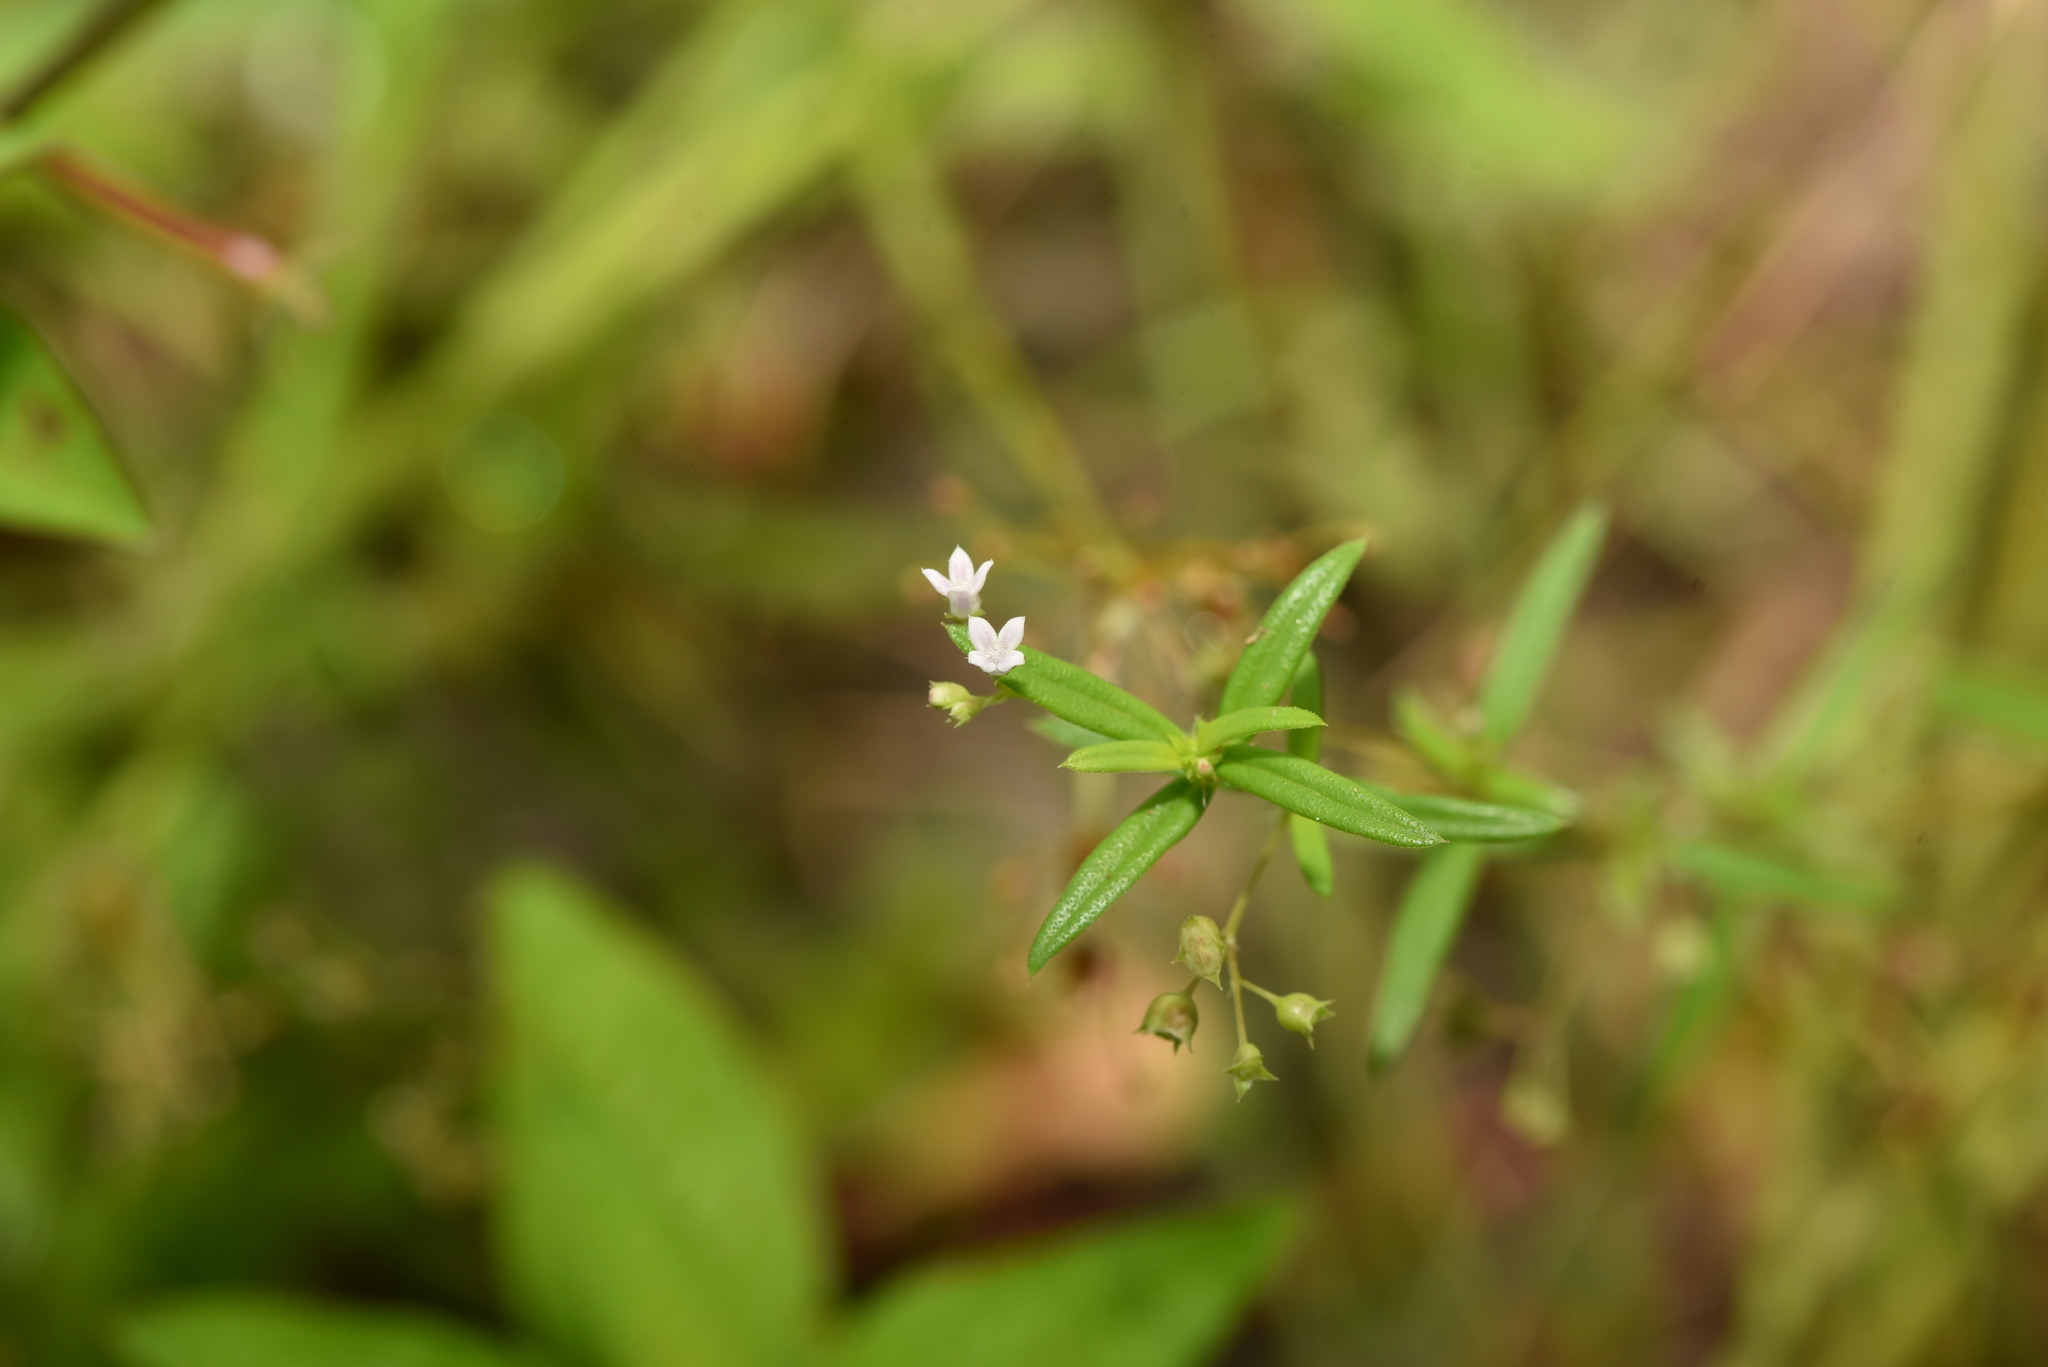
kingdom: Plantae
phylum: Tracheophyta
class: Magnoliopsida
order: Gentianales
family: Rubiaceae
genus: Oldenlandia
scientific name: Oldenlandia corymbosa
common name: Flat-top mille graines
